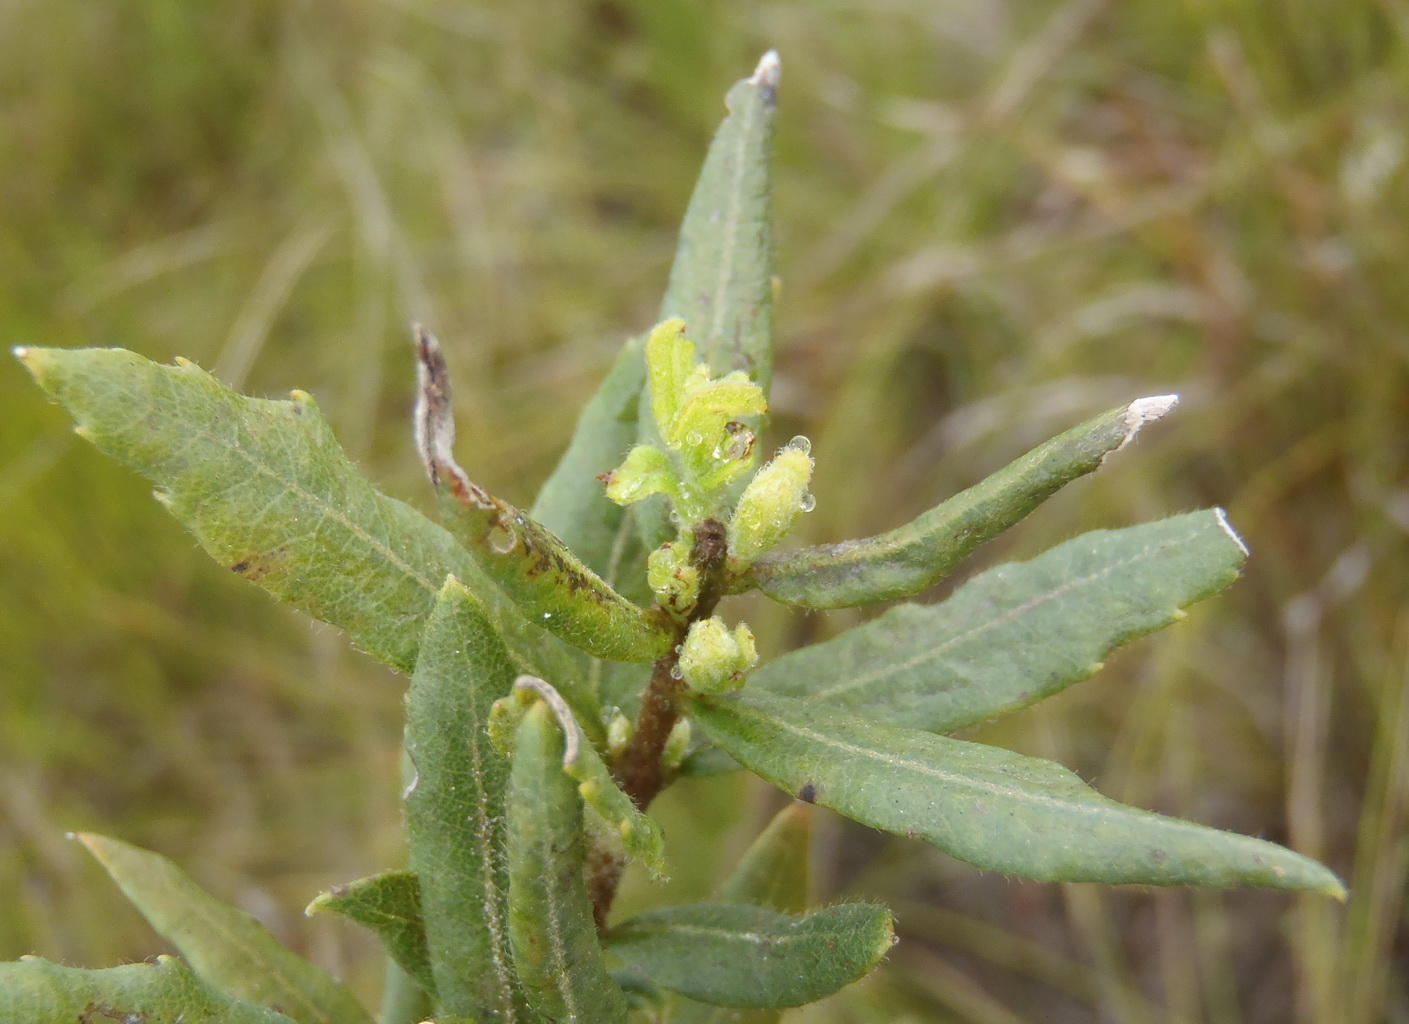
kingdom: Plantae
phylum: Tracheophyta
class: Magnoliopsida
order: Fagales
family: Myricaceae
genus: Morella
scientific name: Morella humilis
